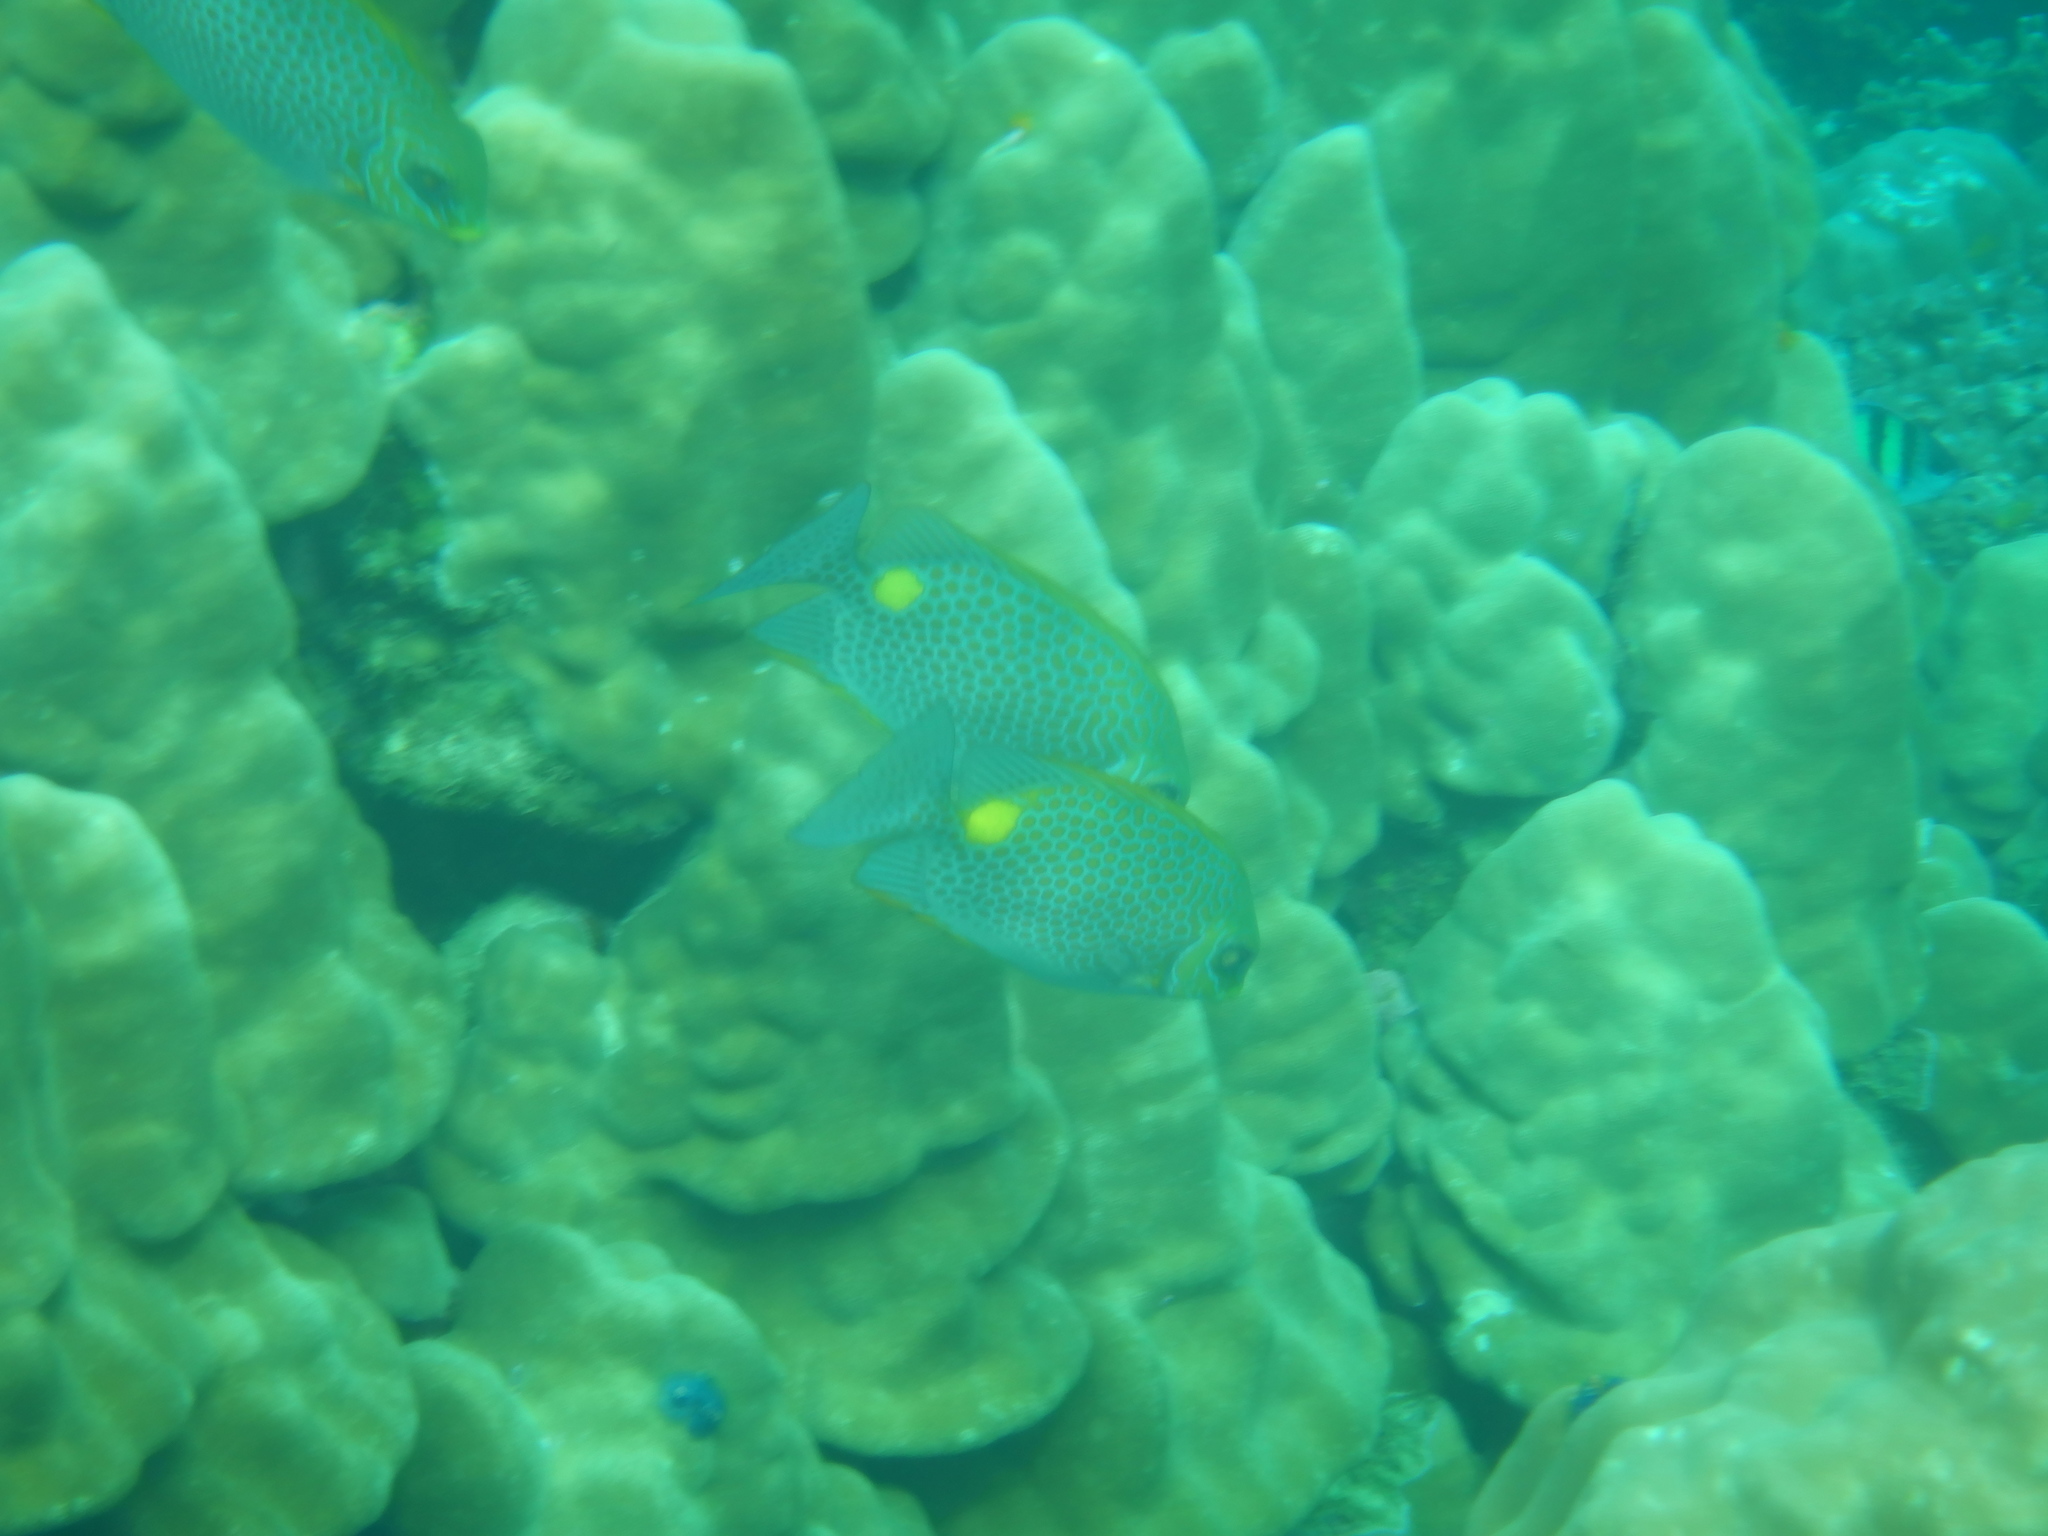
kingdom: Animalia
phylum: Chordata
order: Perciformes
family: Siganidae
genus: Siganus
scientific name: Siganus guttatus
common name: Golden rabbitfish
